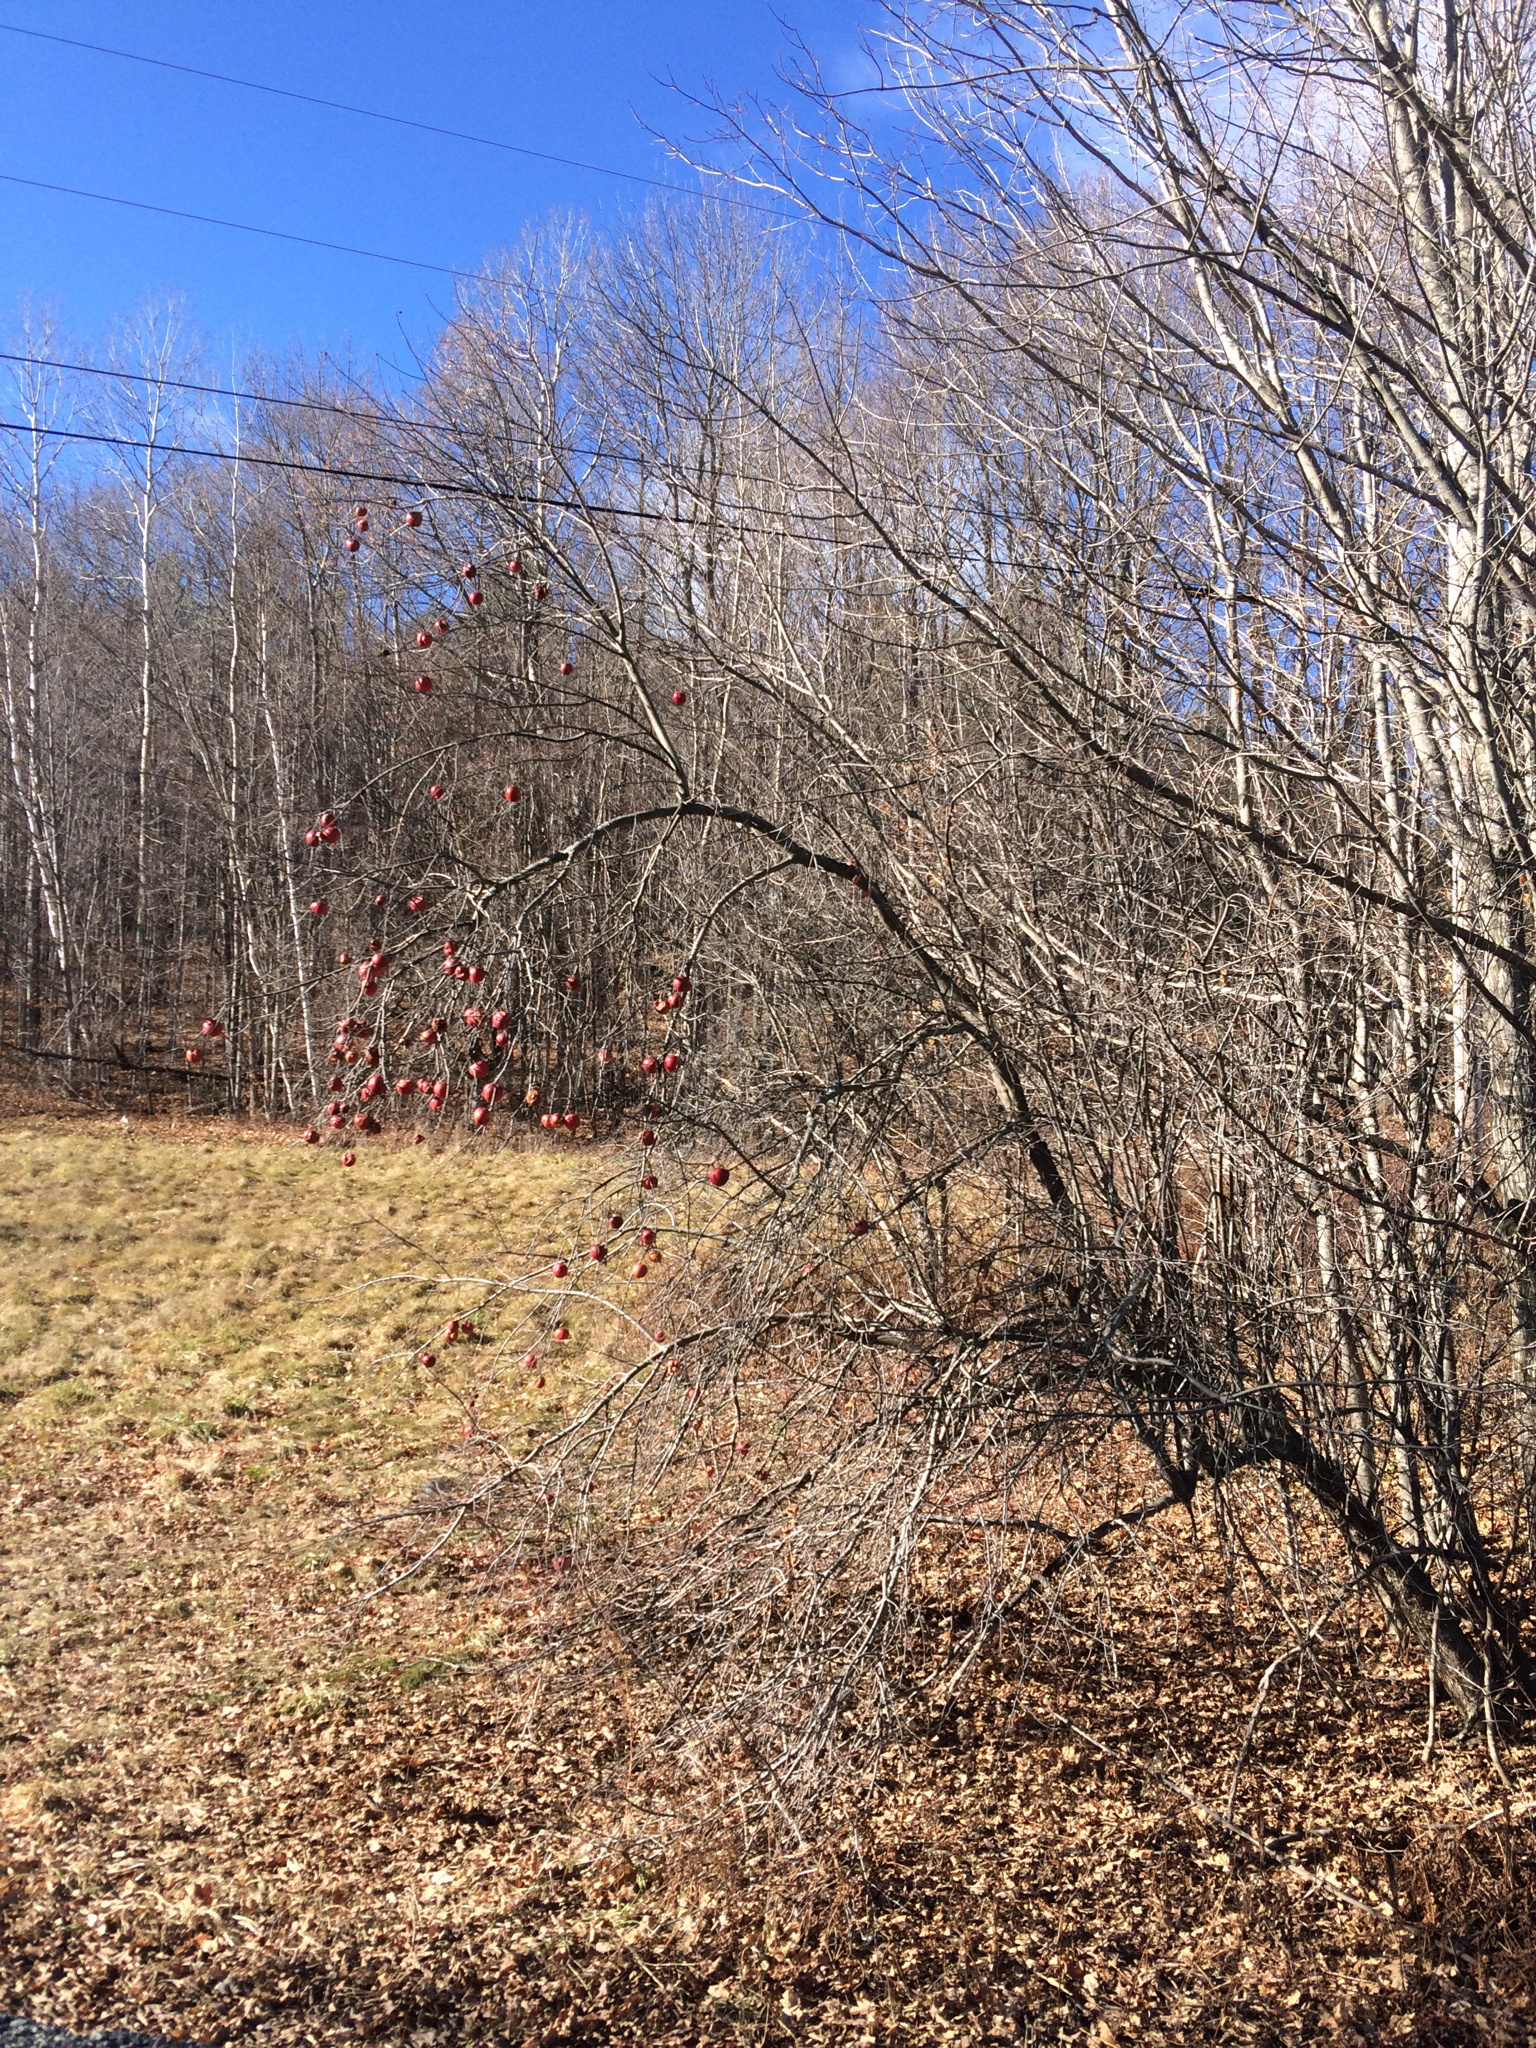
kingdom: Plantae
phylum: Tracheophyta
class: Magnoliopsida
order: Rosales
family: Rosaceae
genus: Malus
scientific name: Malus domestica
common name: Apple
